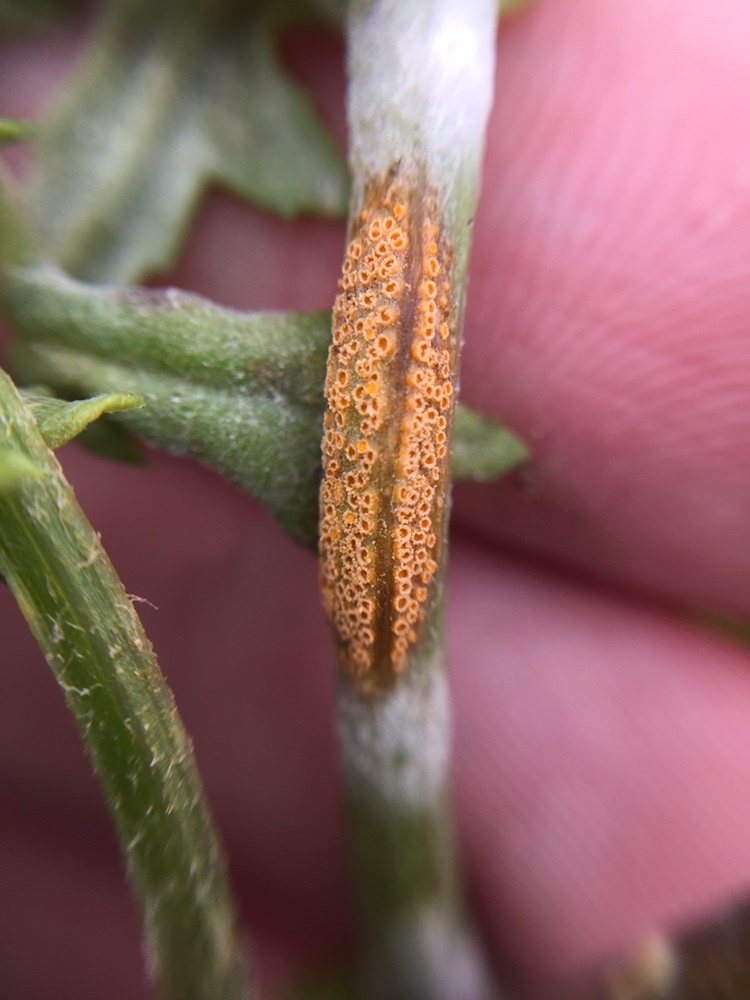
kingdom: Fungi
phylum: Basidiomycota
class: Pucciniomycetes
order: Pucciniales
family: Pucciniaceae
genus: Puccinia
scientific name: Puccinia lagenophorae
